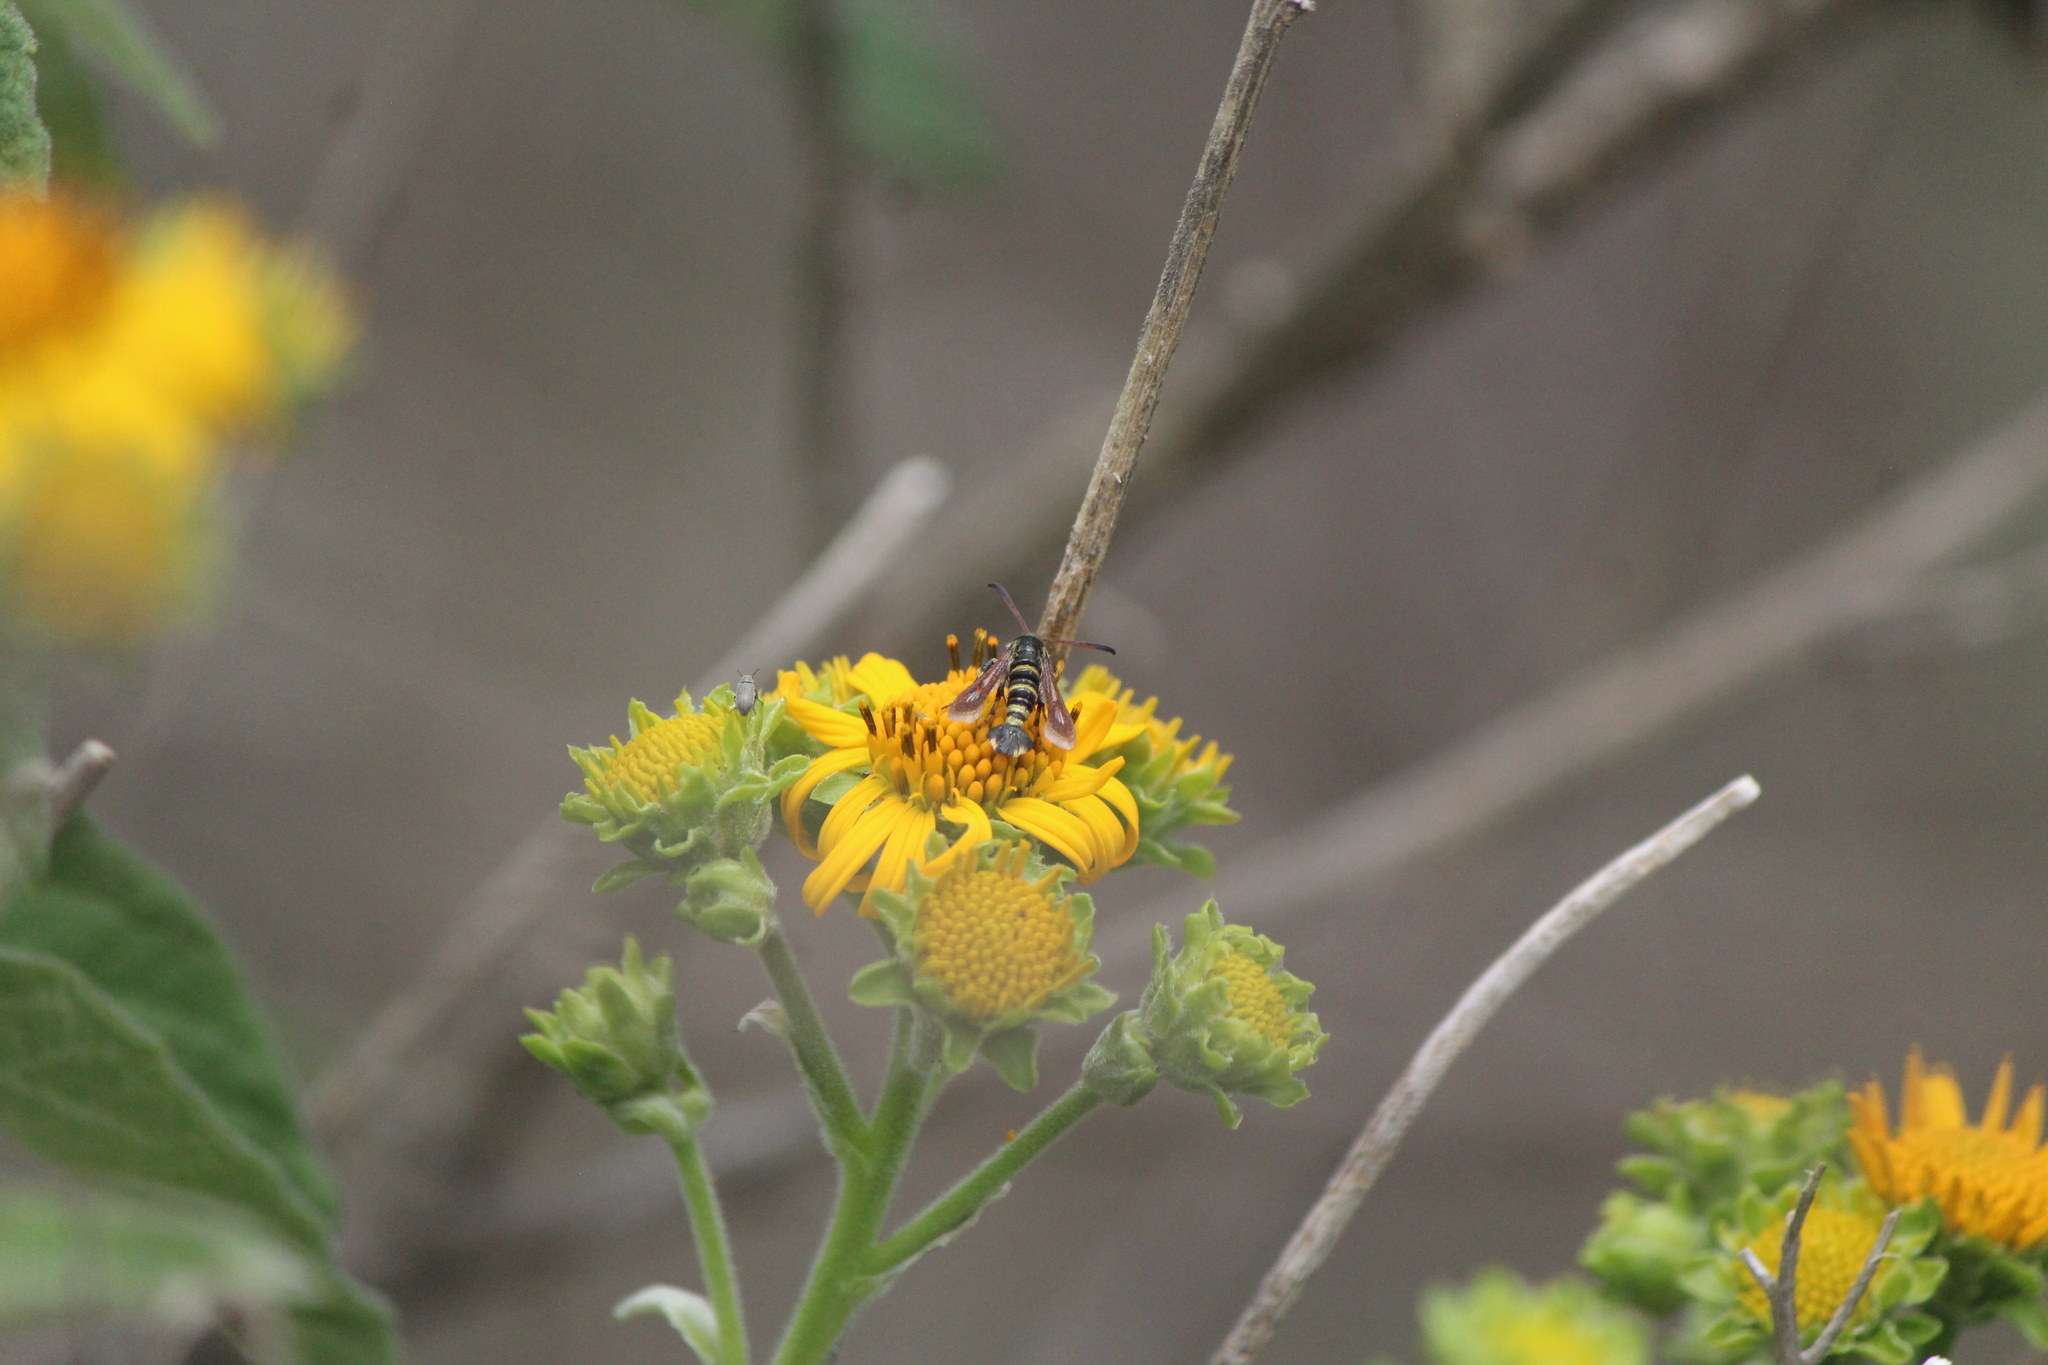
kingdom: Animalia
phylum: Arthropoda
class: Insecta
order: Lepidoptera
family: Sesiidae
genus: Osminia
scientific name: Osminia ruficornis
